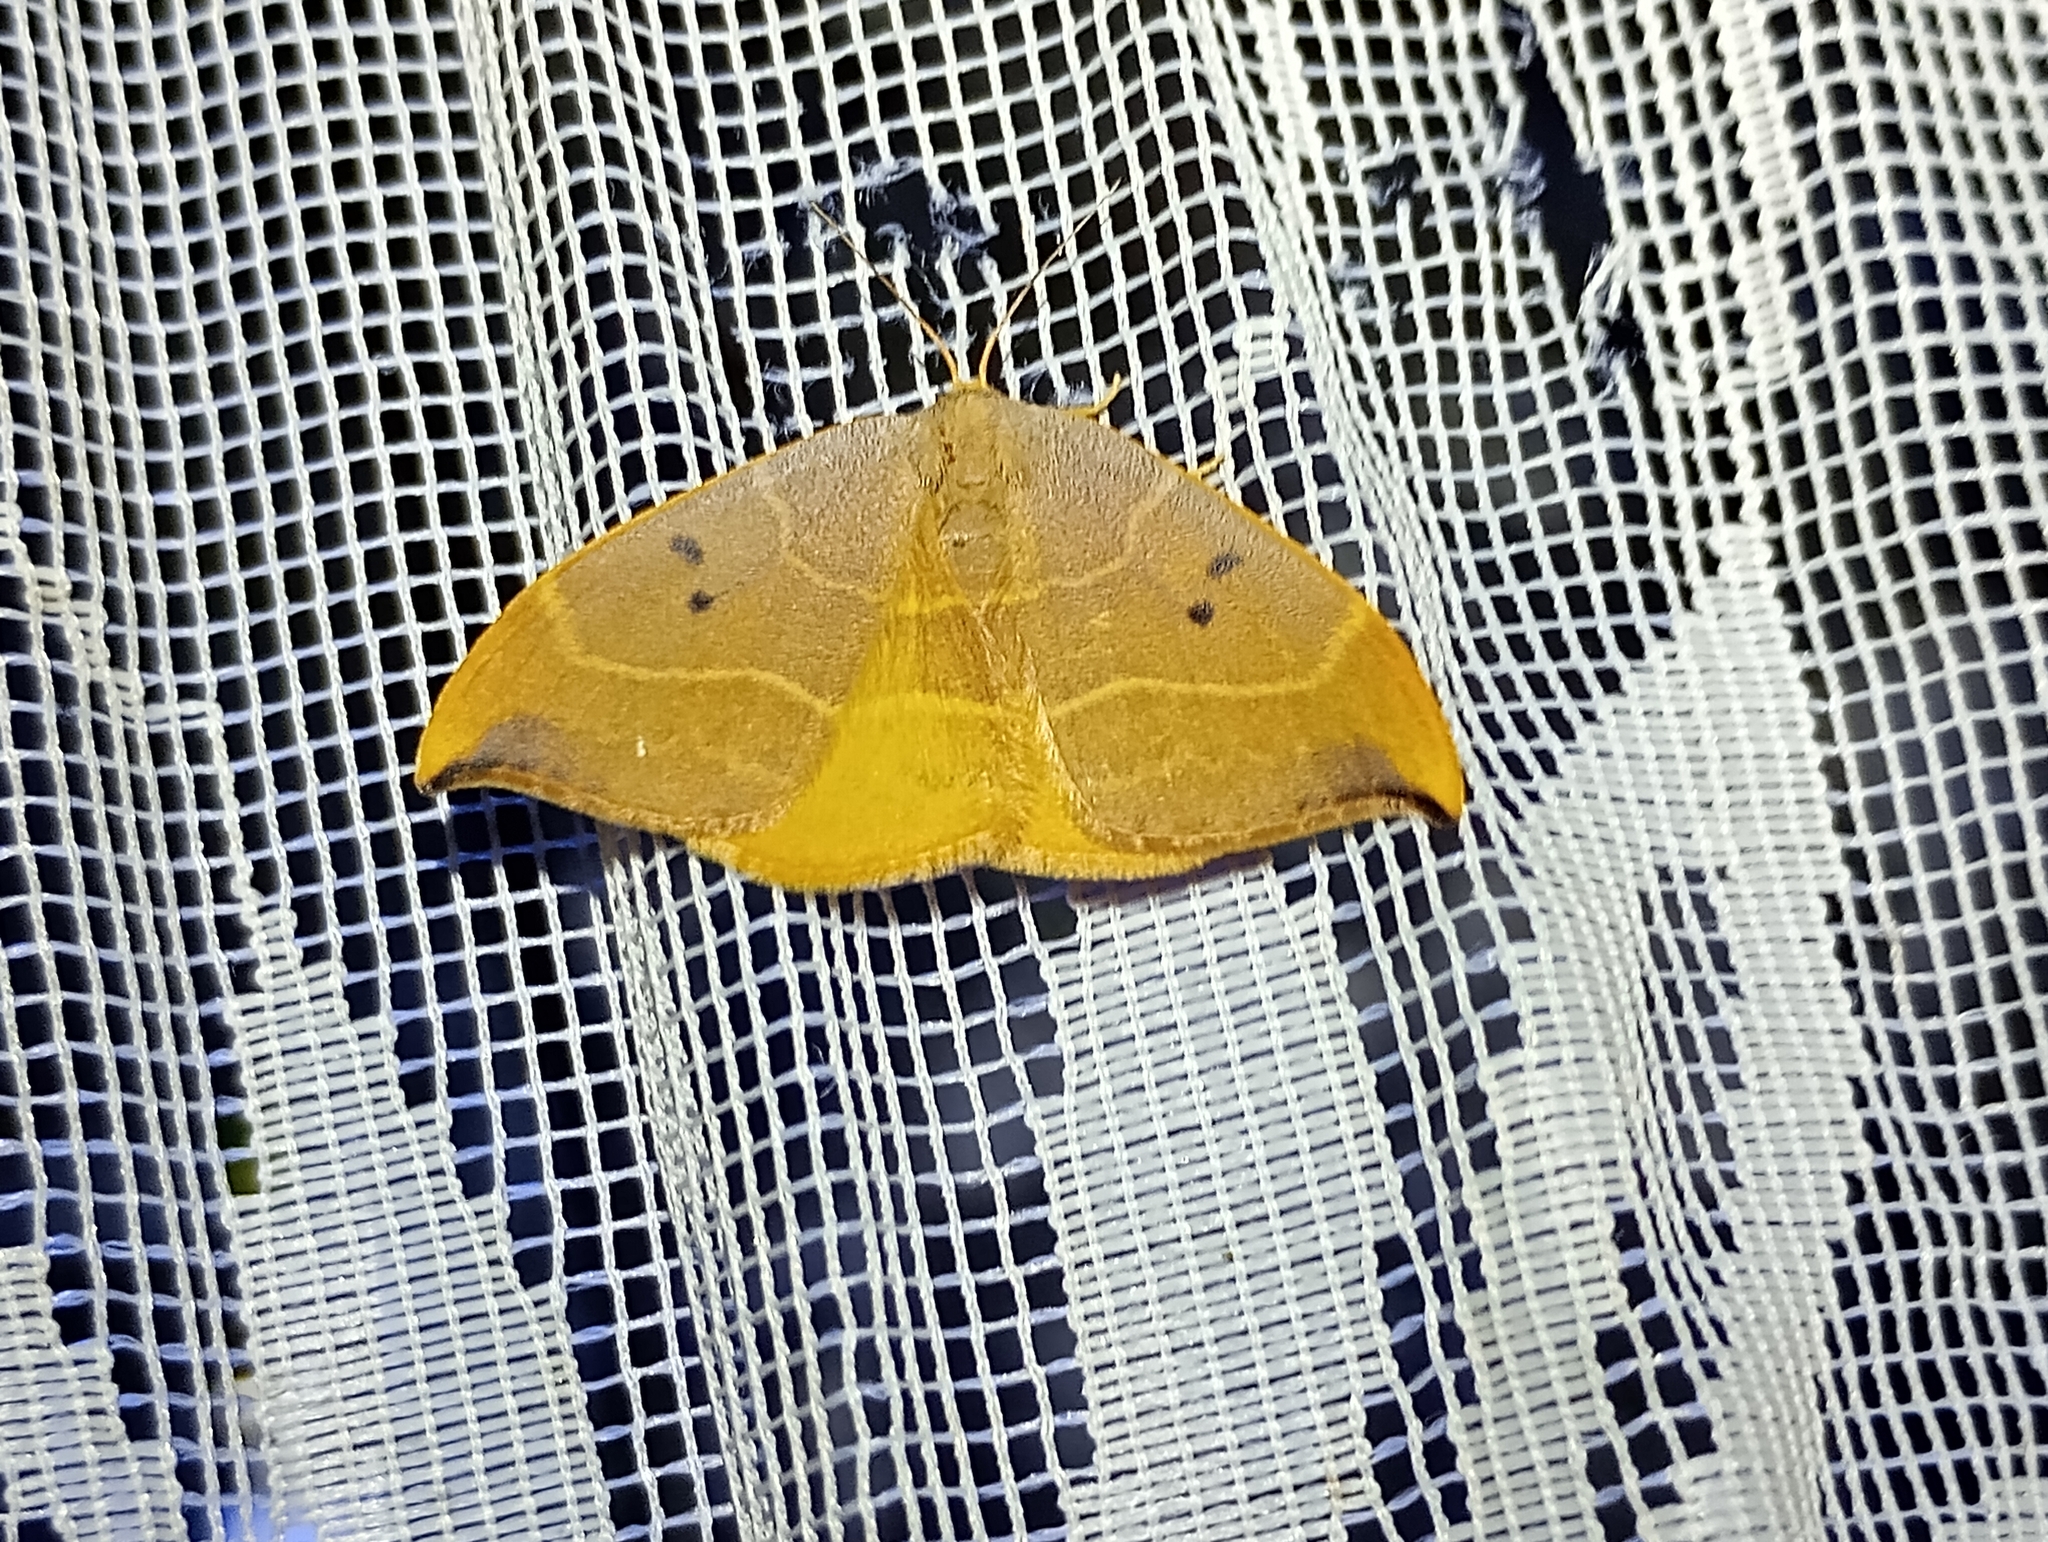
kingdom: Animalia
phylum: Arthropoda
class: Insecta
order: Lepidoptera
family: Drepanidae
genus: Watsonalla
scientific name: Watsonalla binaria
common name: Oak hook-tip
